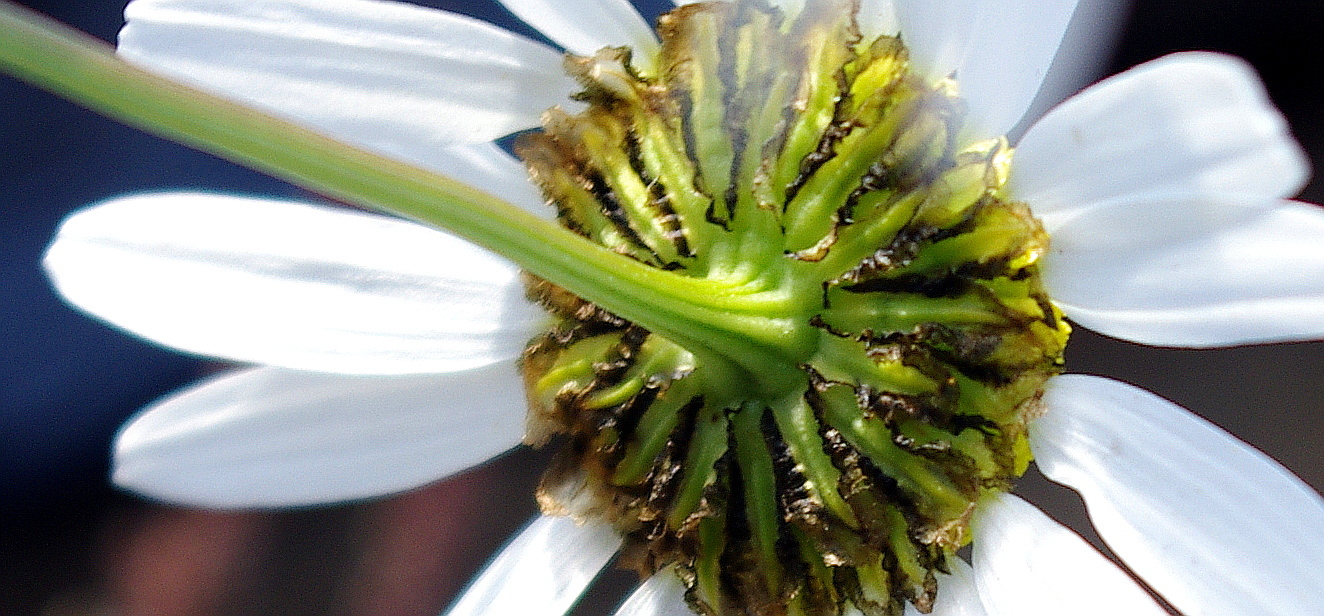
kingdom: Plantae
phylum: Tracheophyta
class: Magnoliopsida
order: Asterales
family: Asteraceae
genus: Tripleurospermum
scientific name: Tripleurospermum maritimum
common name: Sea mayweed
